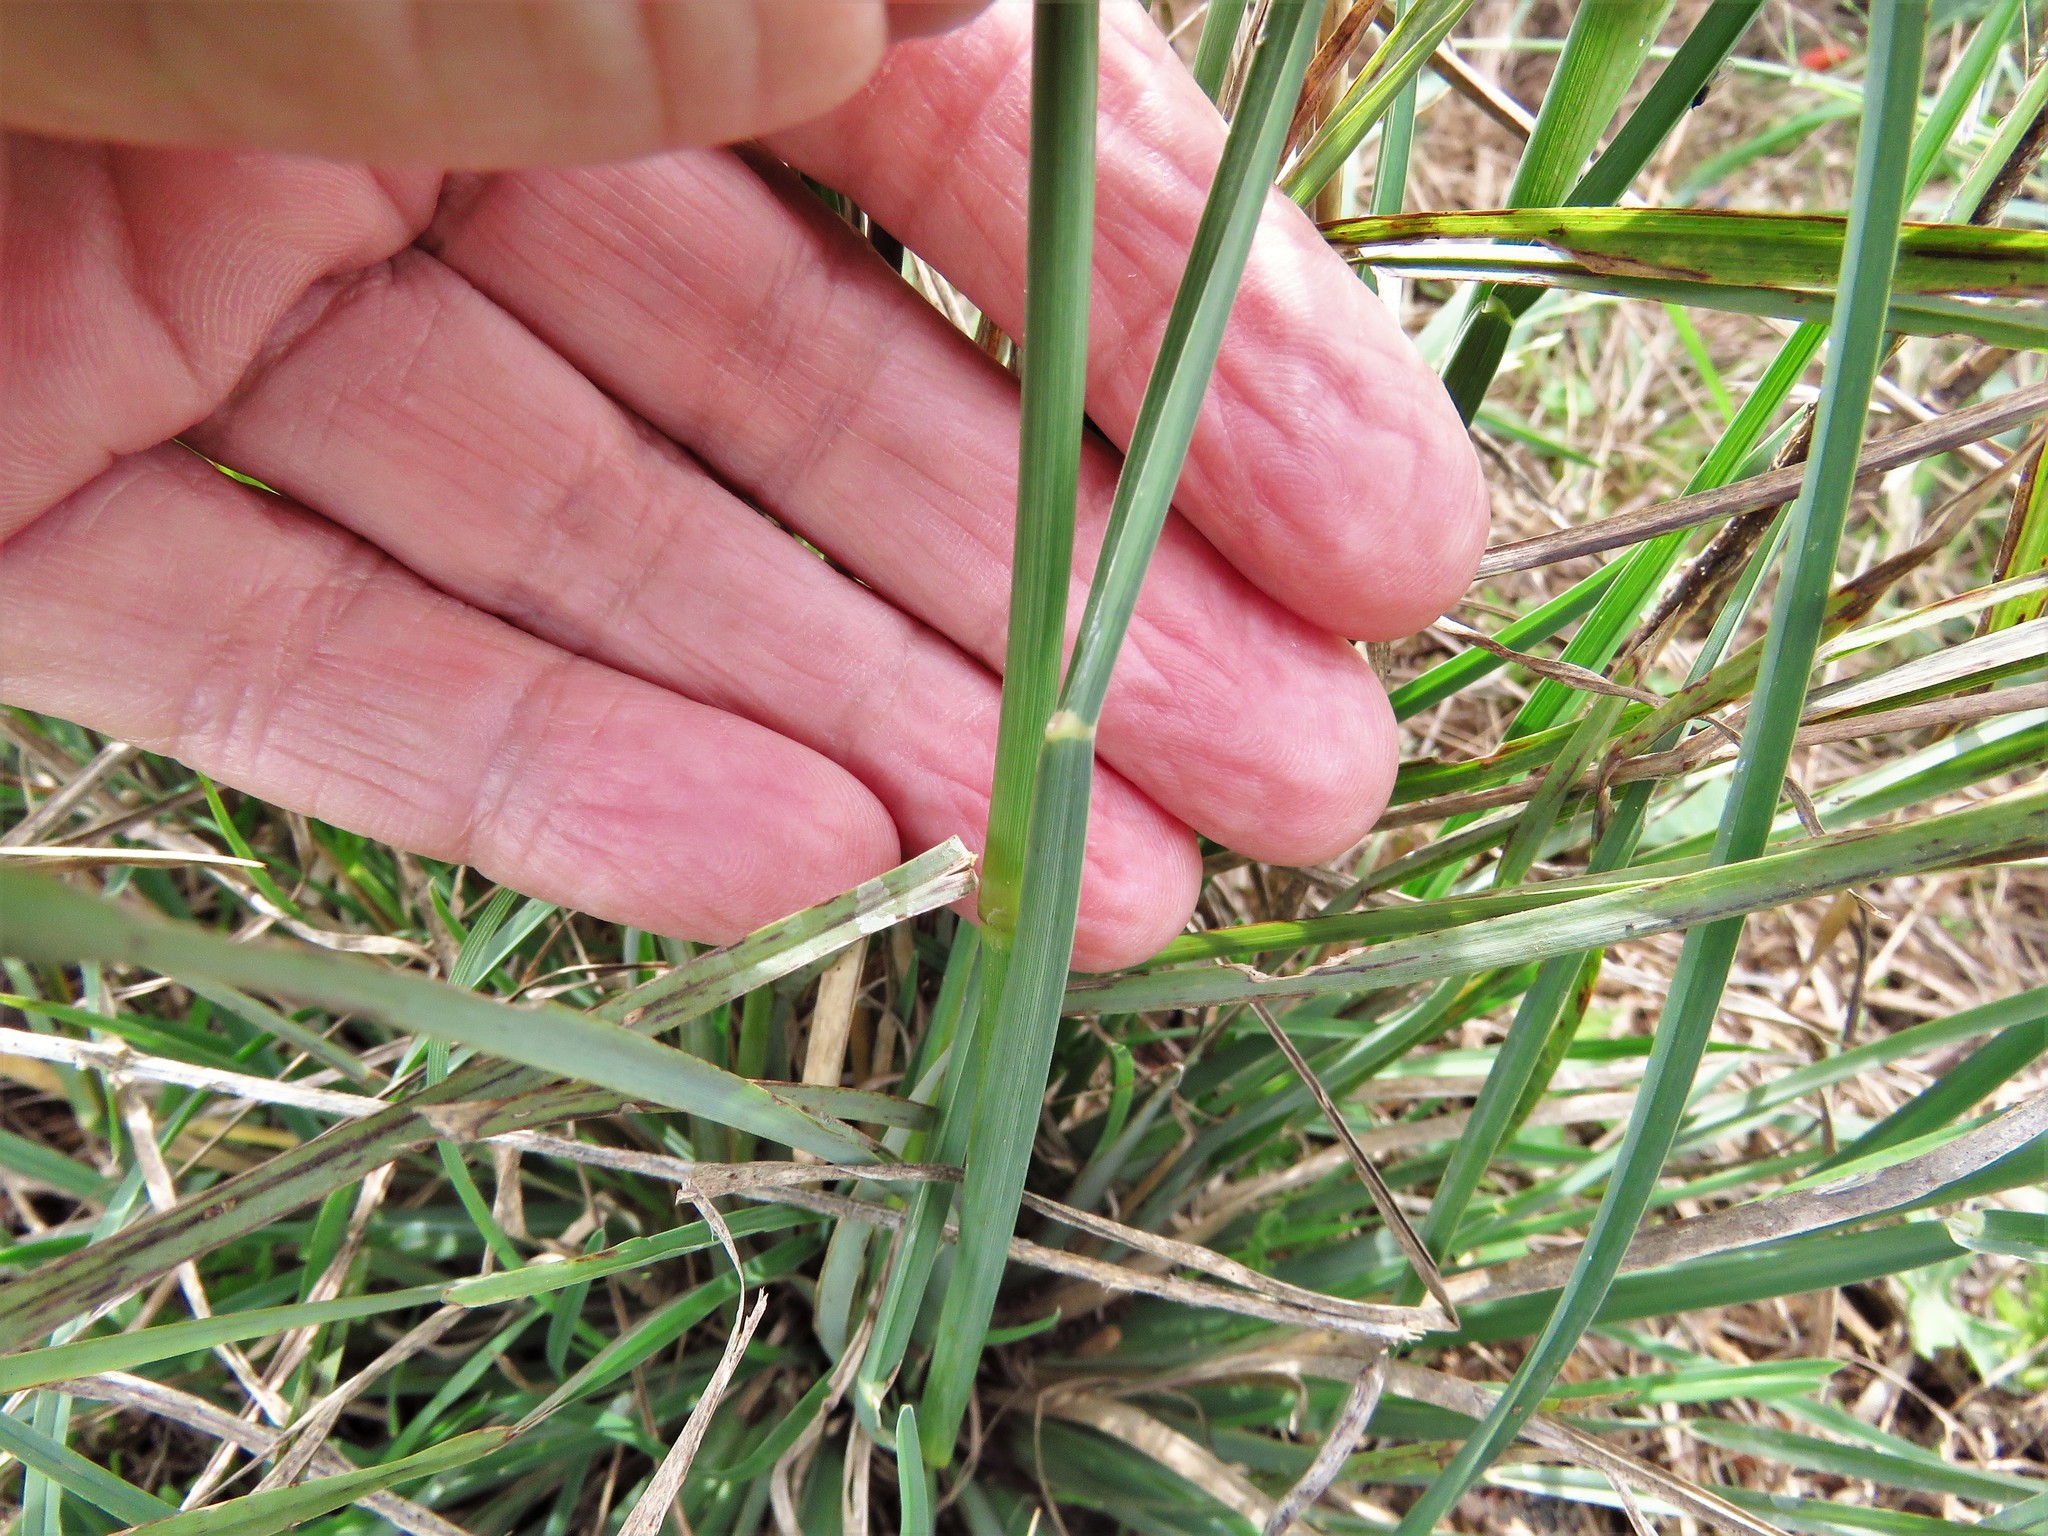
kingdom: Plantae
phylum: Tracheophyta
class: Liliopsida
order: Poales
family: Poaceae
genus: Chloris
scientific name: Chloris cucullata
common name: Hooded windmill grass
